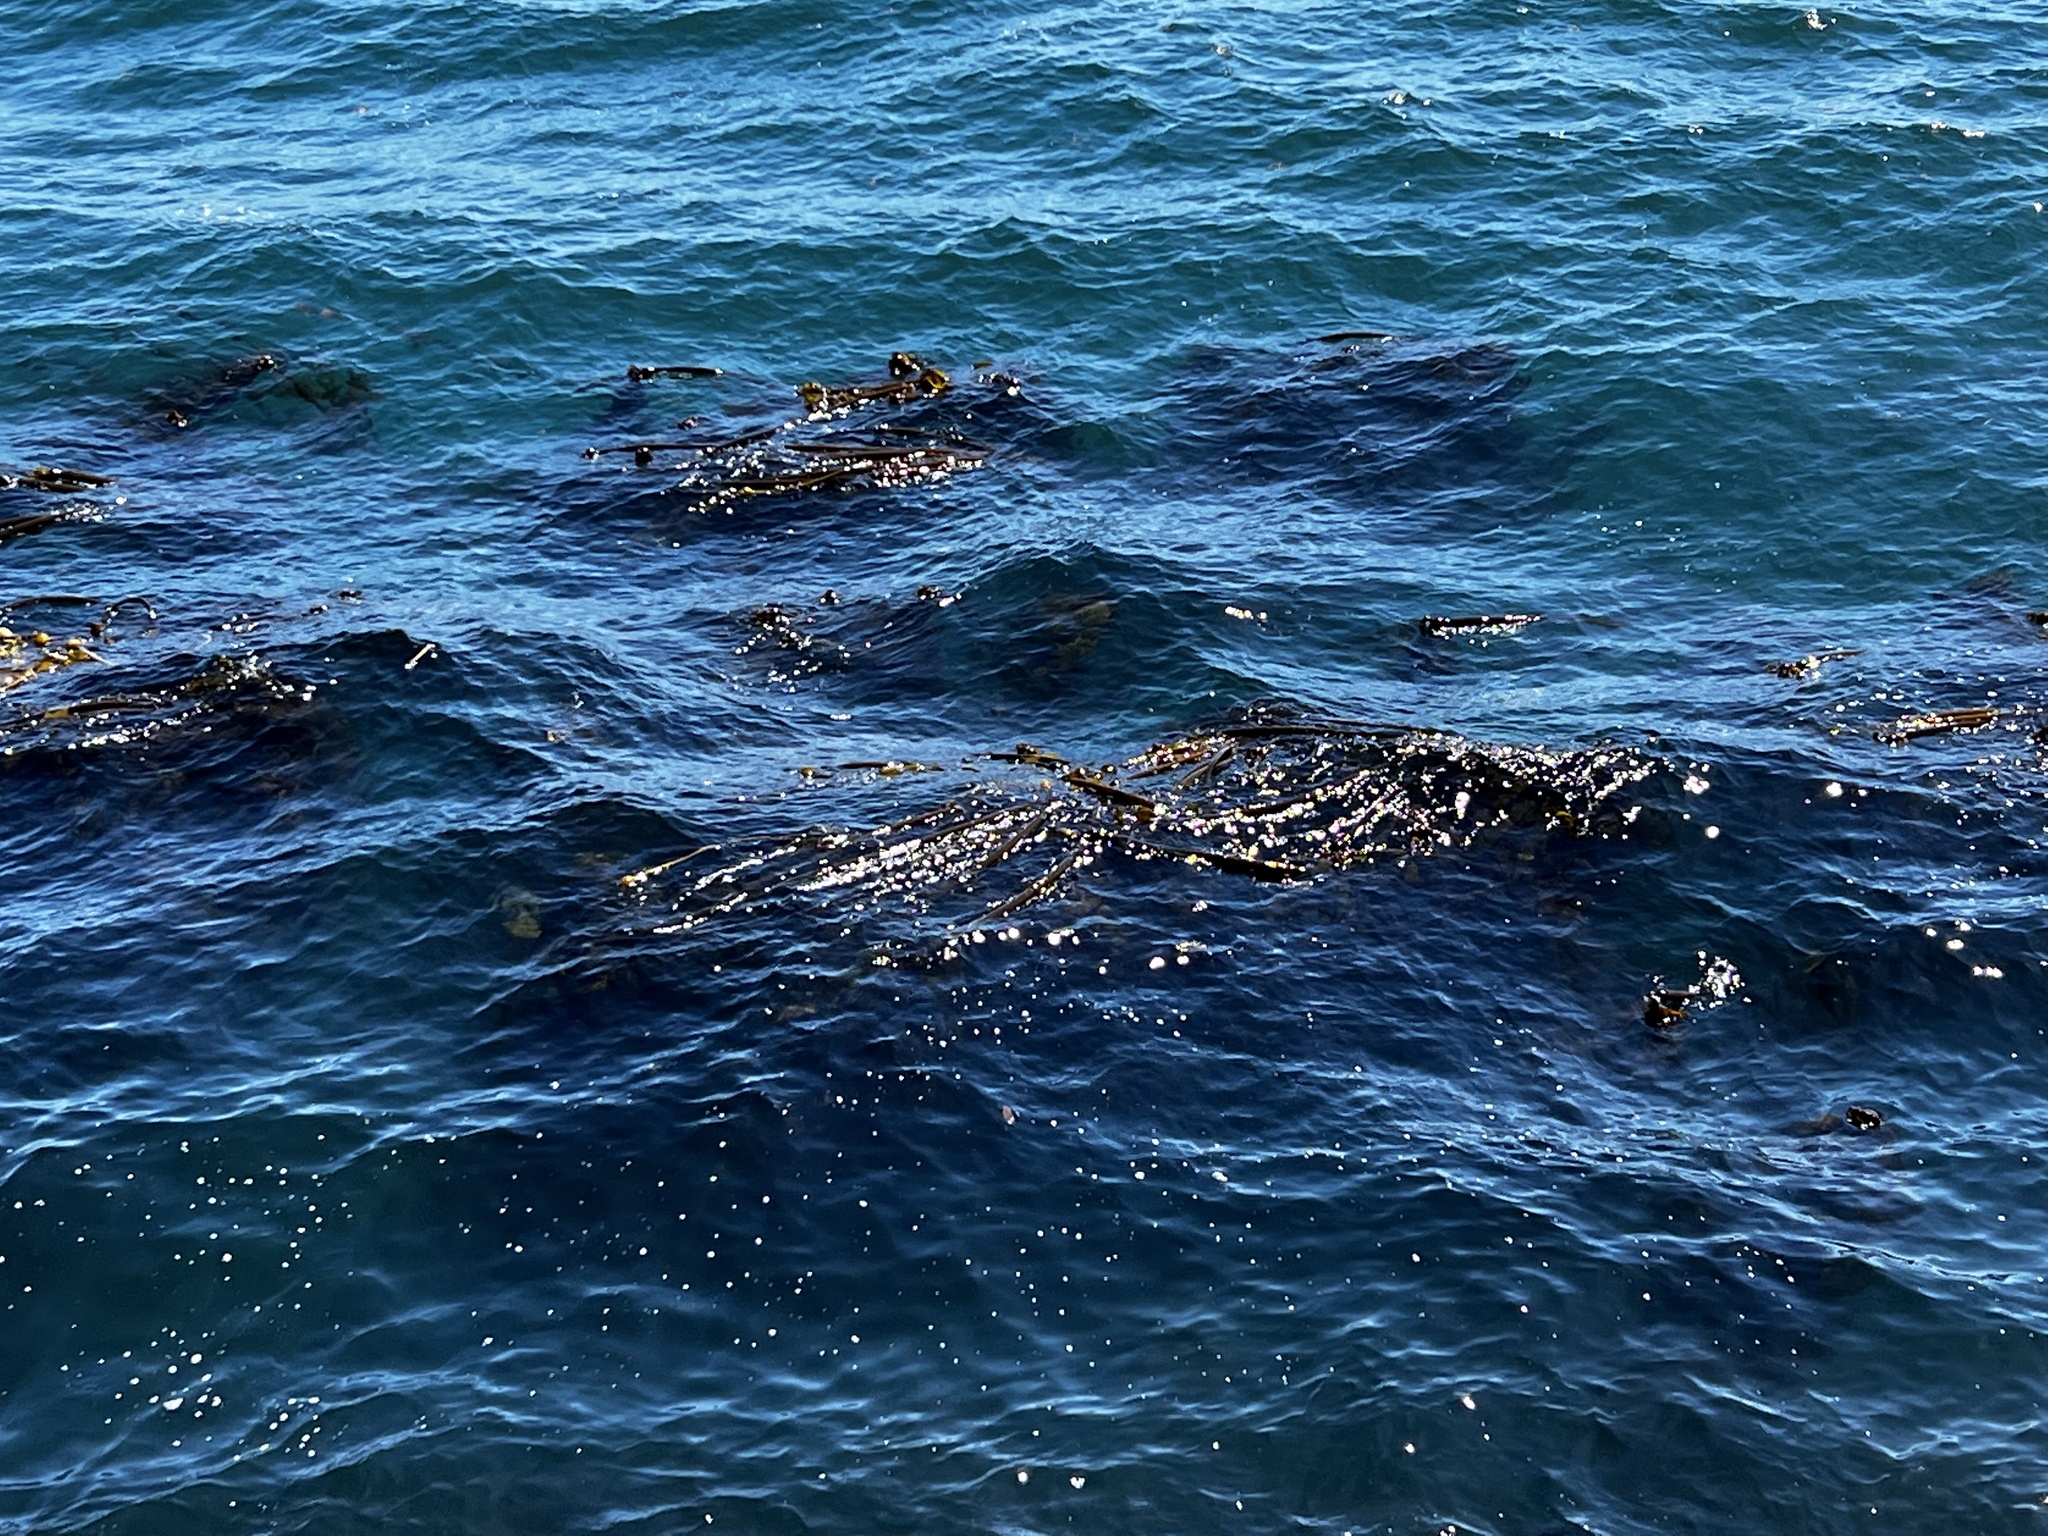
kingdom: Chromista
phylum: Ochrophyta
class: Phaeophyceae
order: Laminariales
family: Laminariaceae
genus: Nereocystis
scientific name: Nereocystis luetkeana
